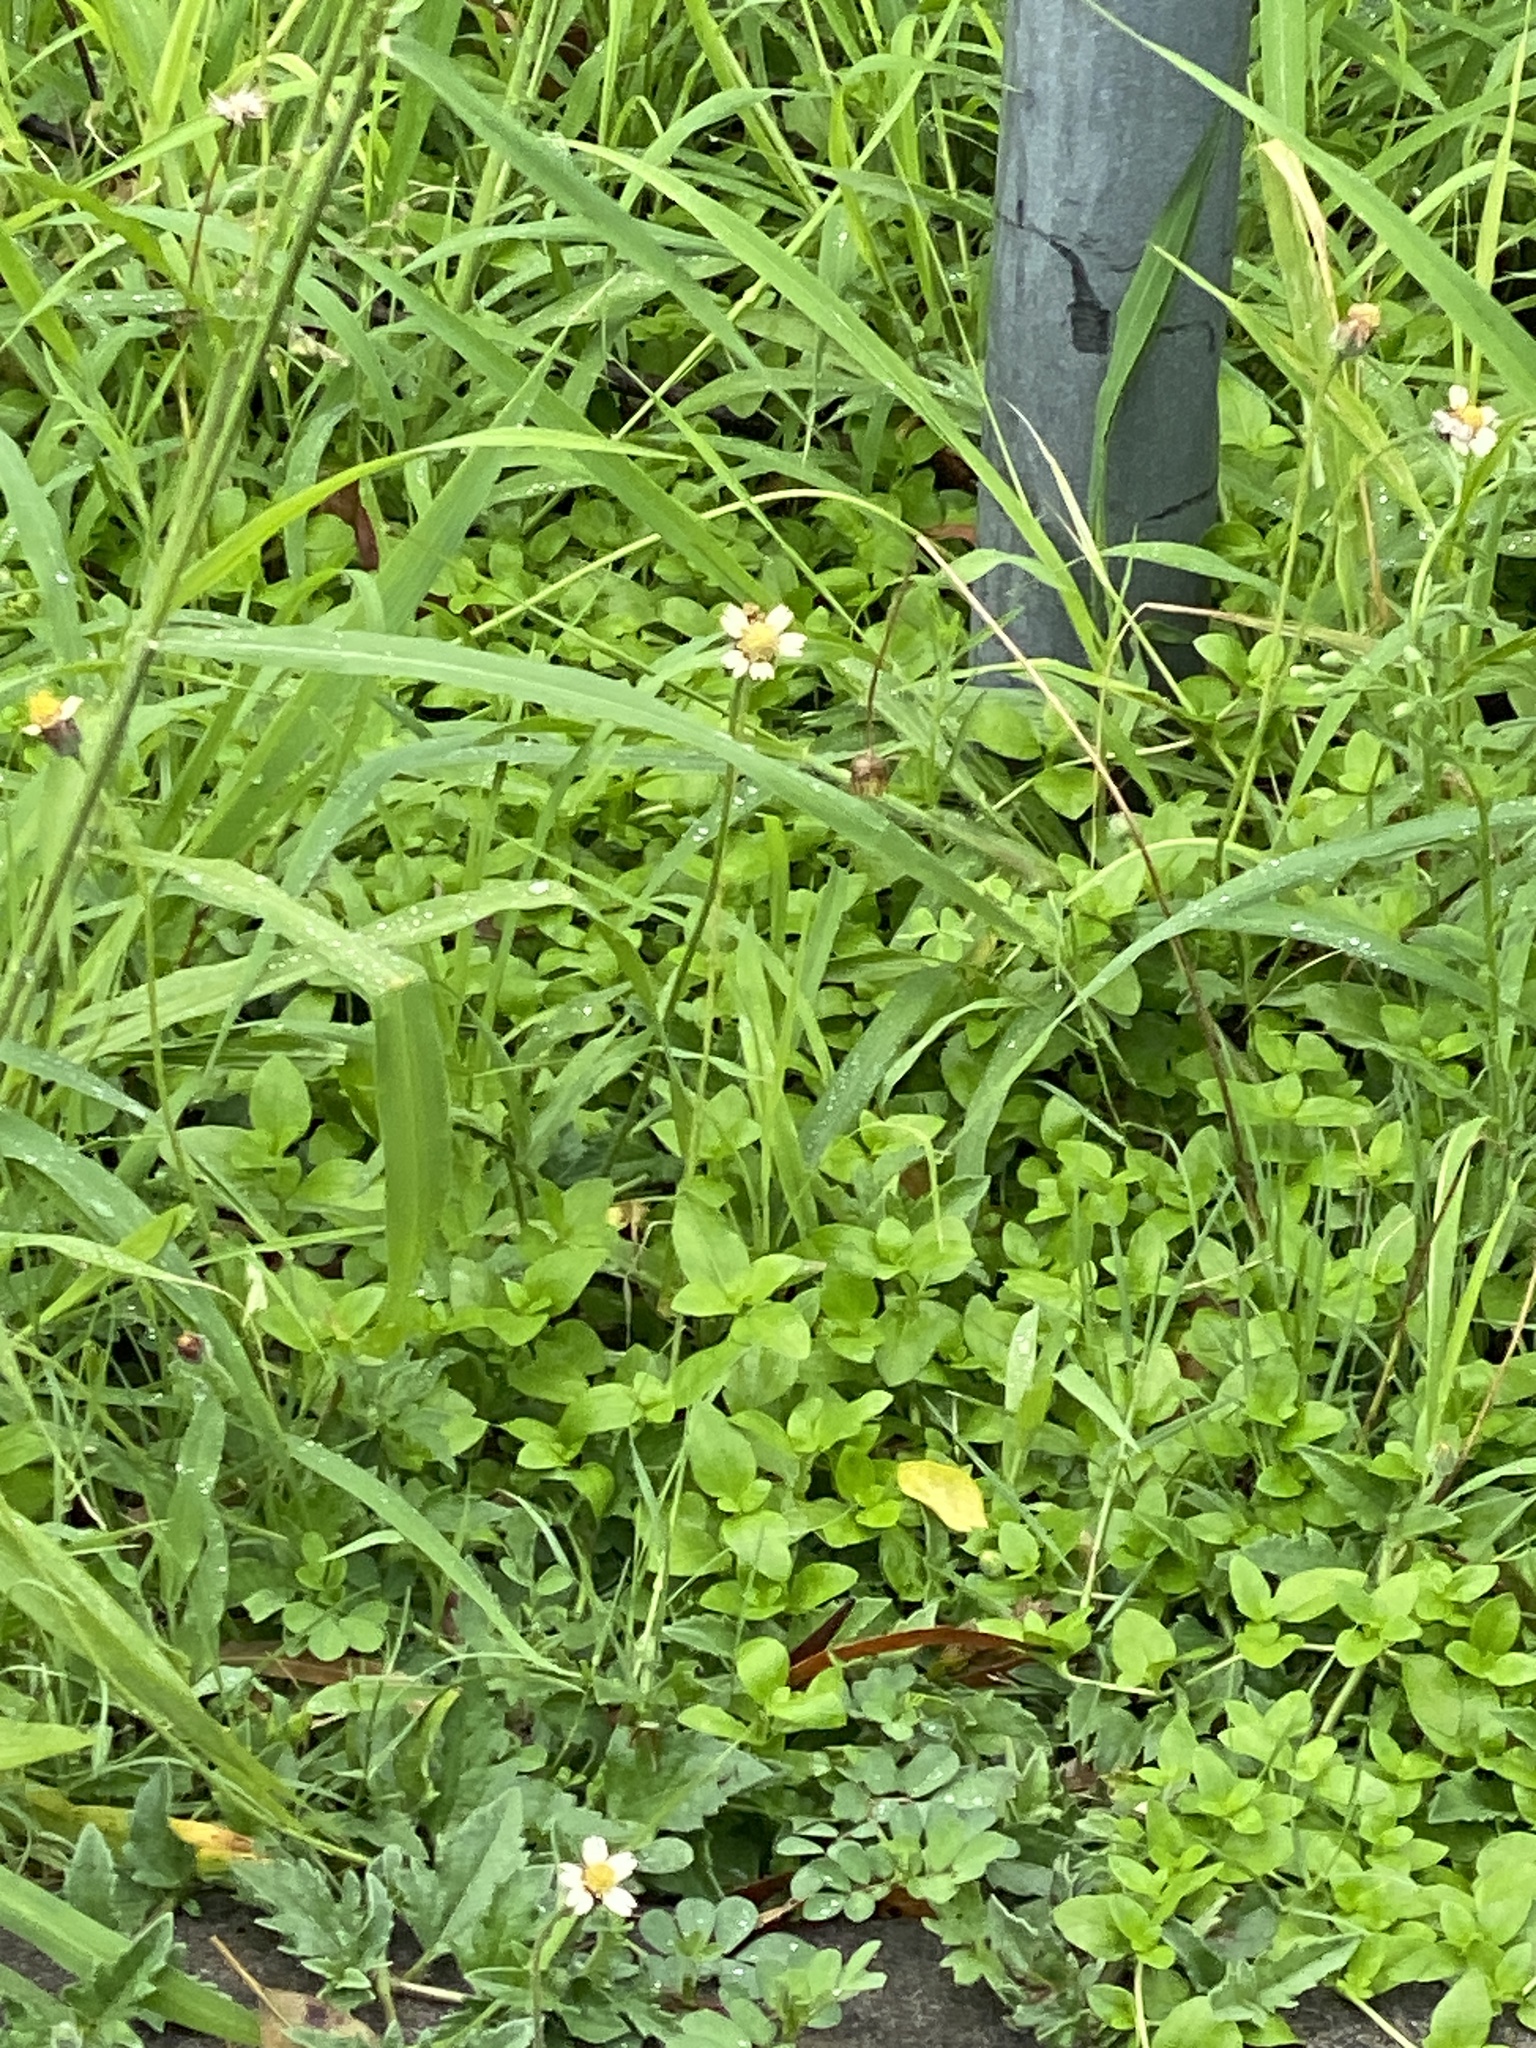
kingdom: Plantae
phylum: Tracheophyta
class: Magnoliopsida
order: Asterales
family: Asteraceae
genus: Tridax
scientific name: Tridax procumbens
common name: Coatbuttons
